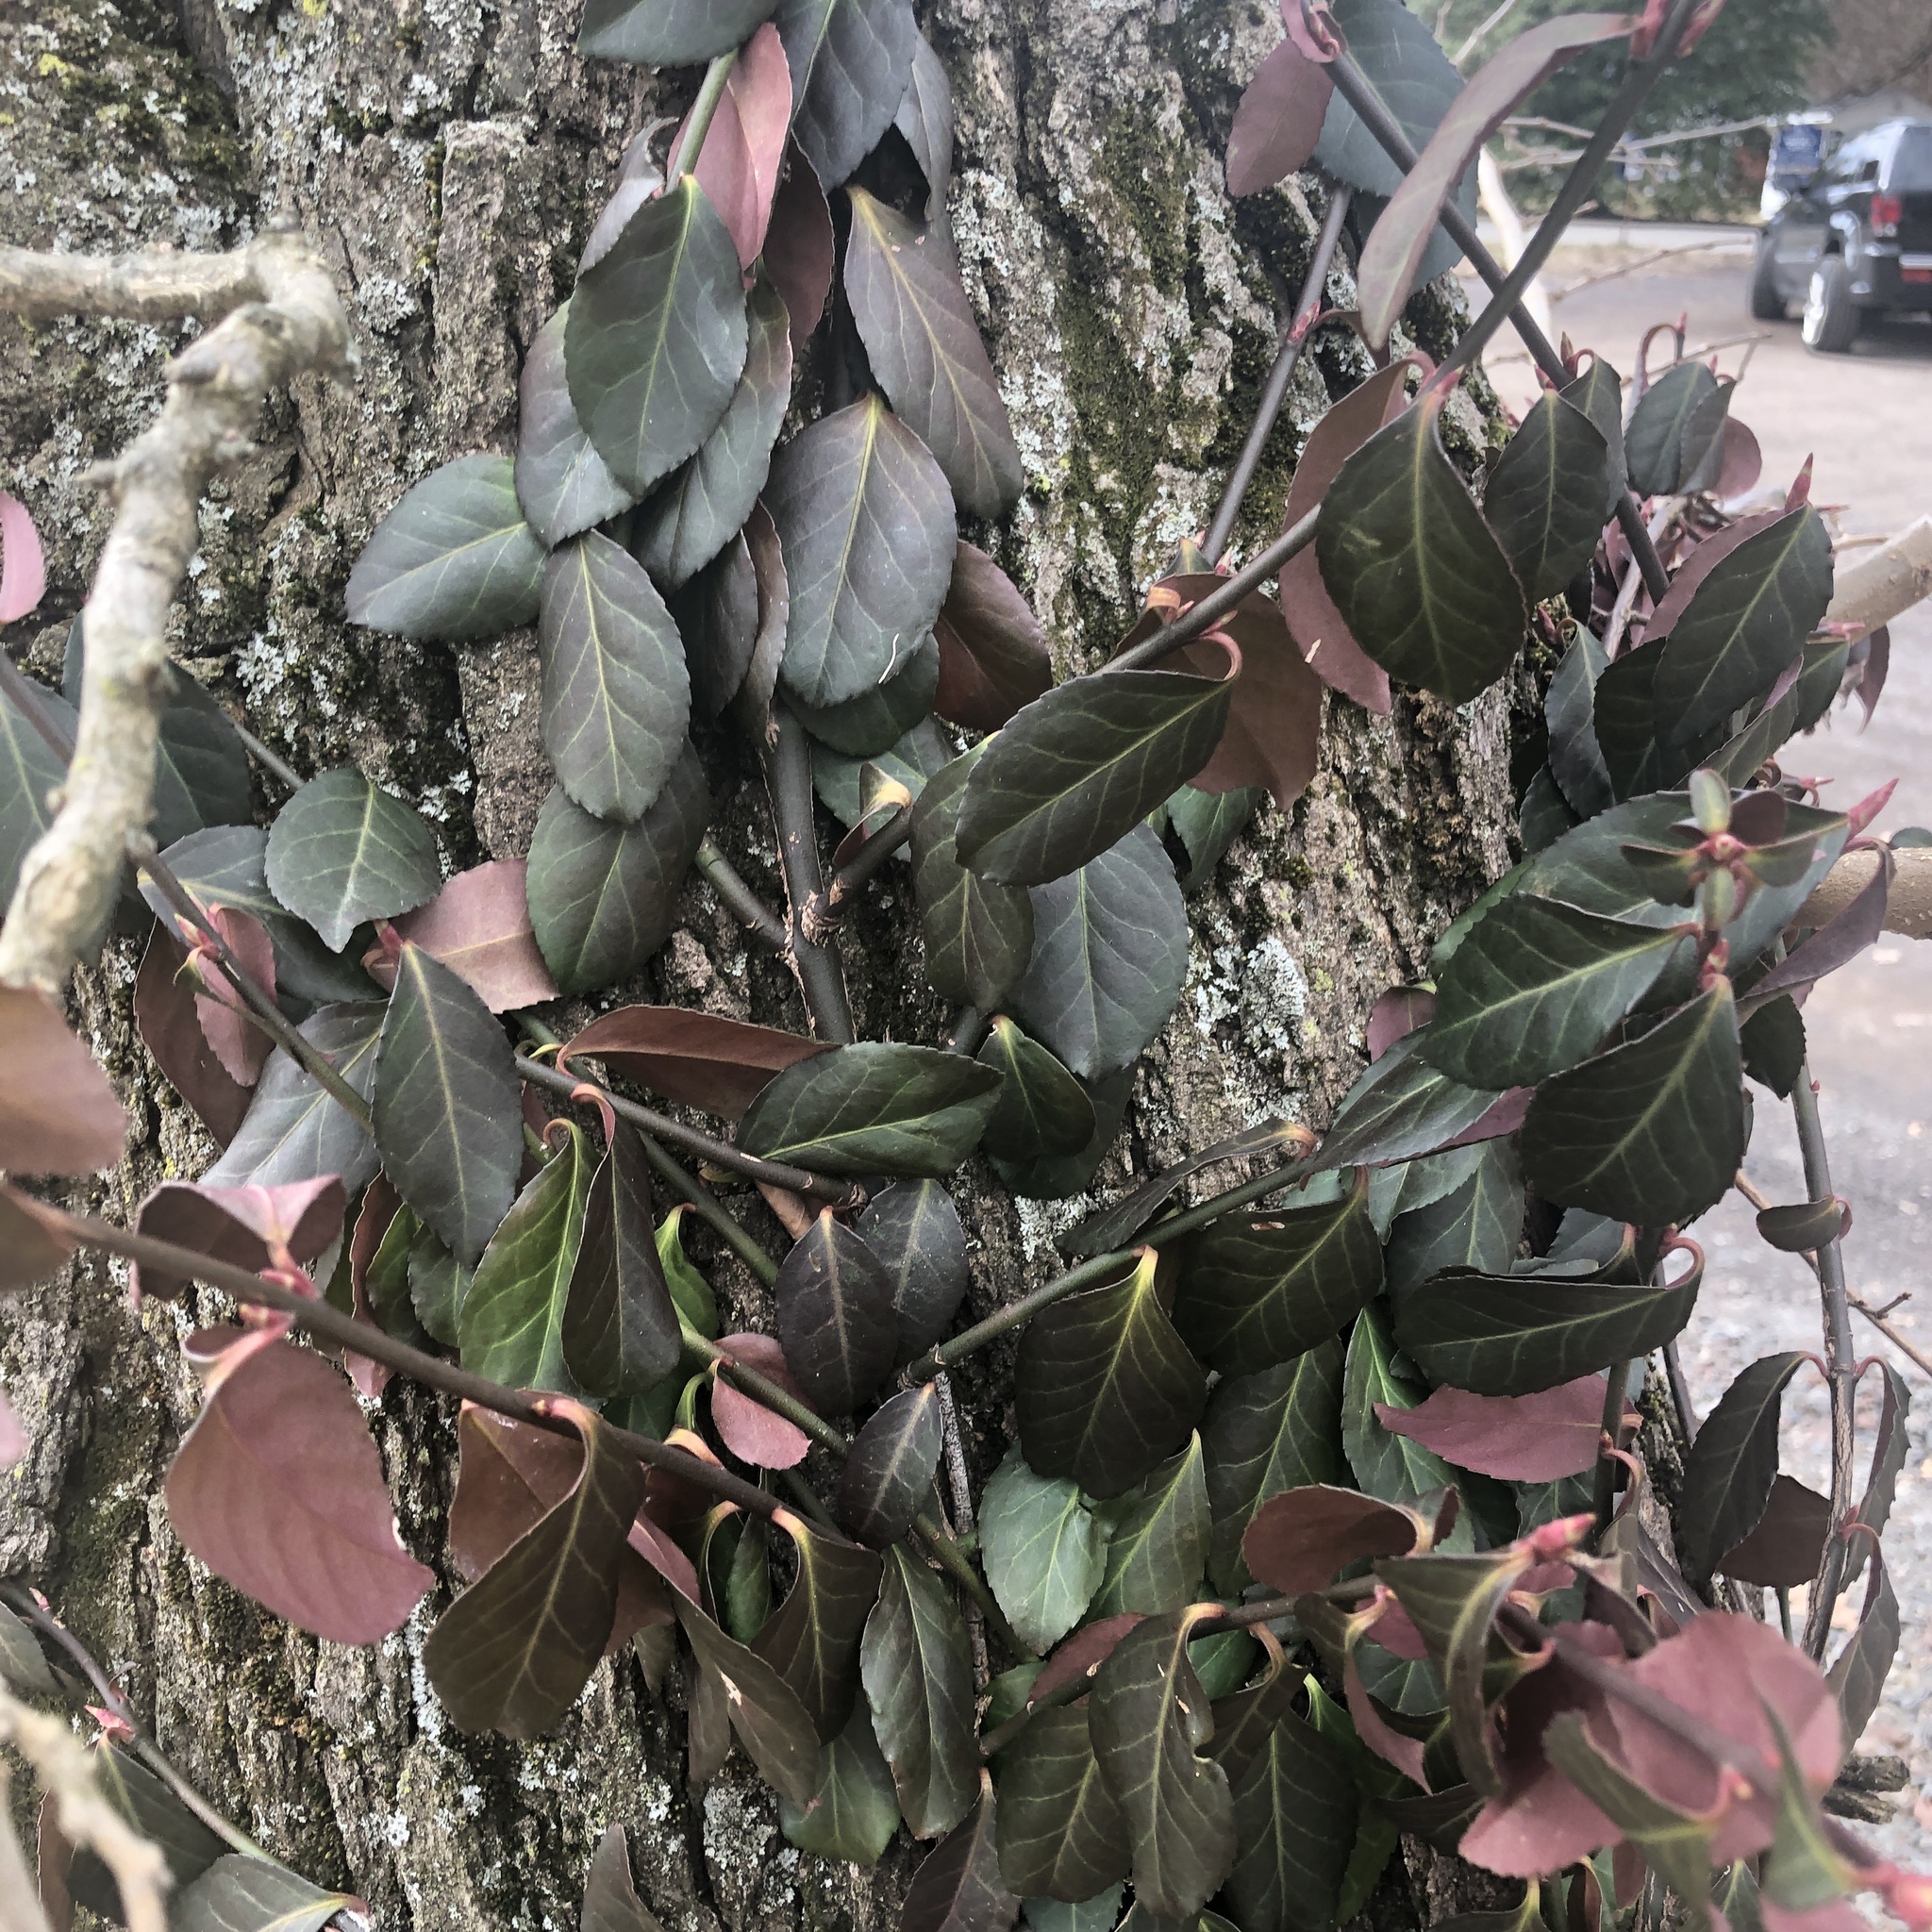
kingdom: Plantae
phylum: Tracheophyta
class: Magnoliopsida
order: Celastrales
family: Celastraceae
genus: Euonymus
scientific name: Euonymus fortunei
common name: Climbing euonymus
